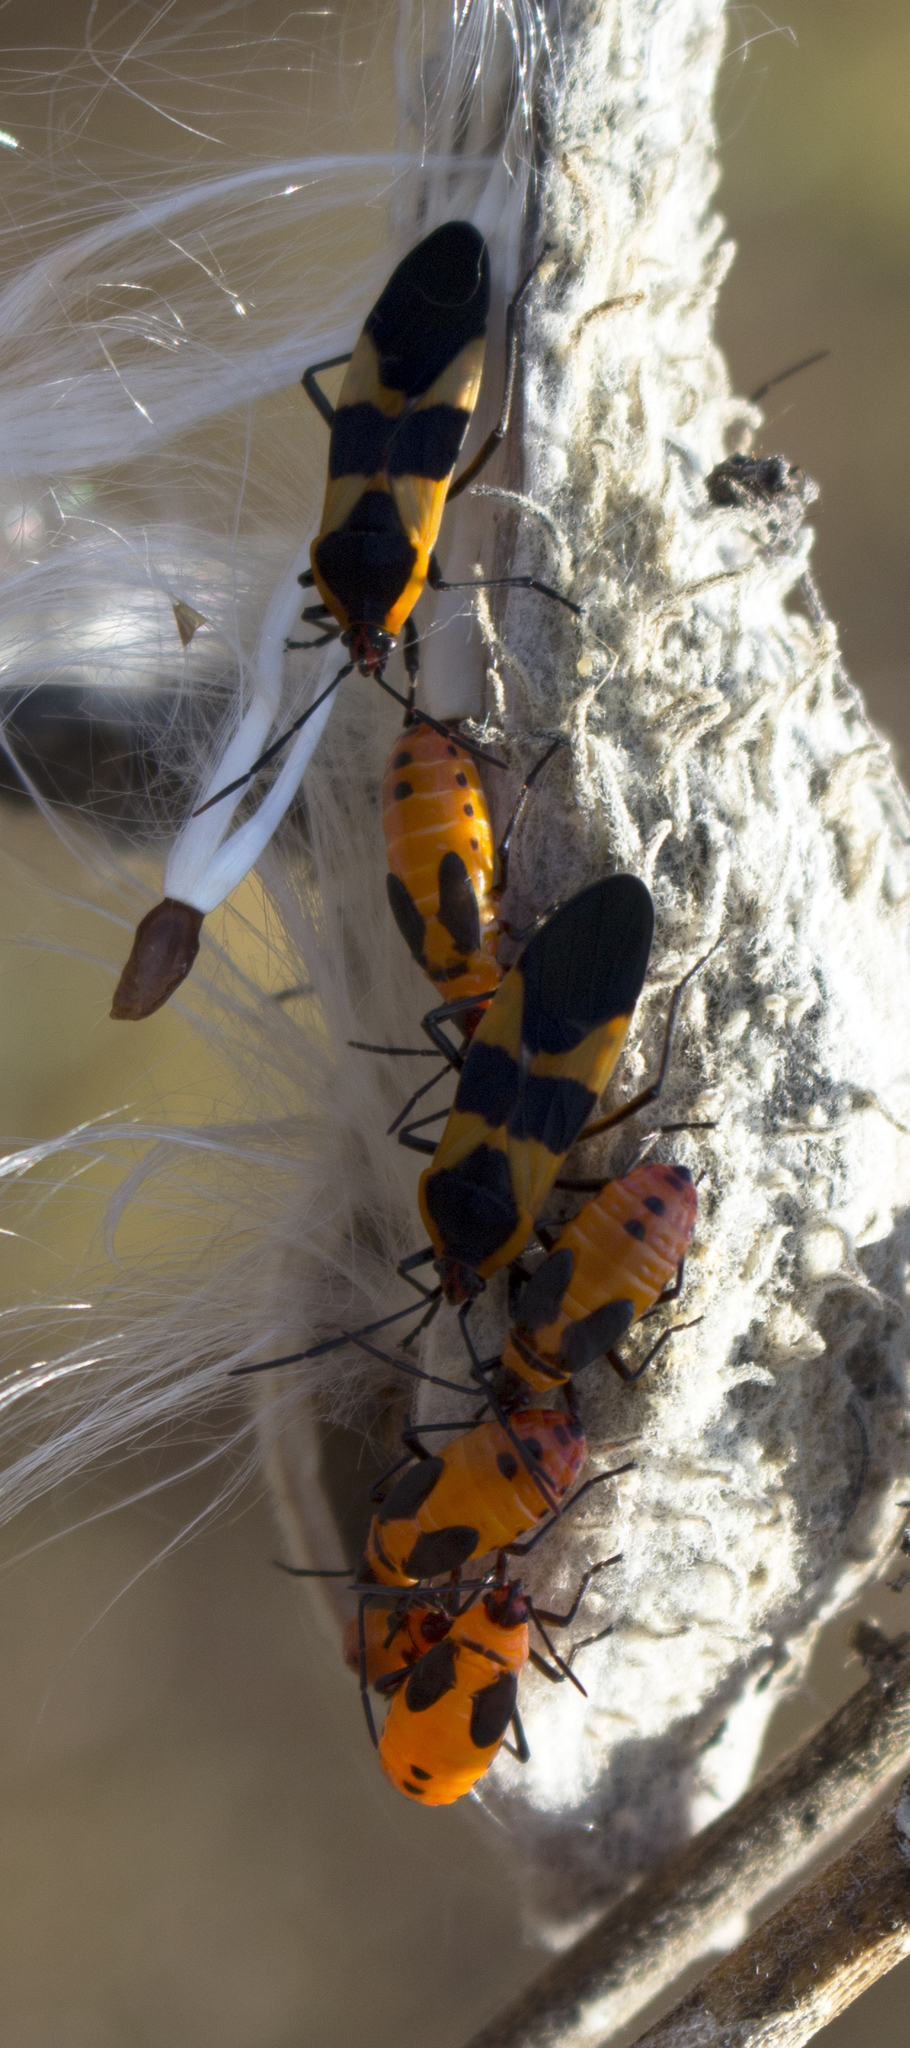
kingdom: Animalia
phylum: Arthropoda
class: Insecta
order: Hemiptera
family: Lygaeidae
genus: Oncopeltus
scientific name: Oncopeltus fasciatus
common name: Large milkweed bug
